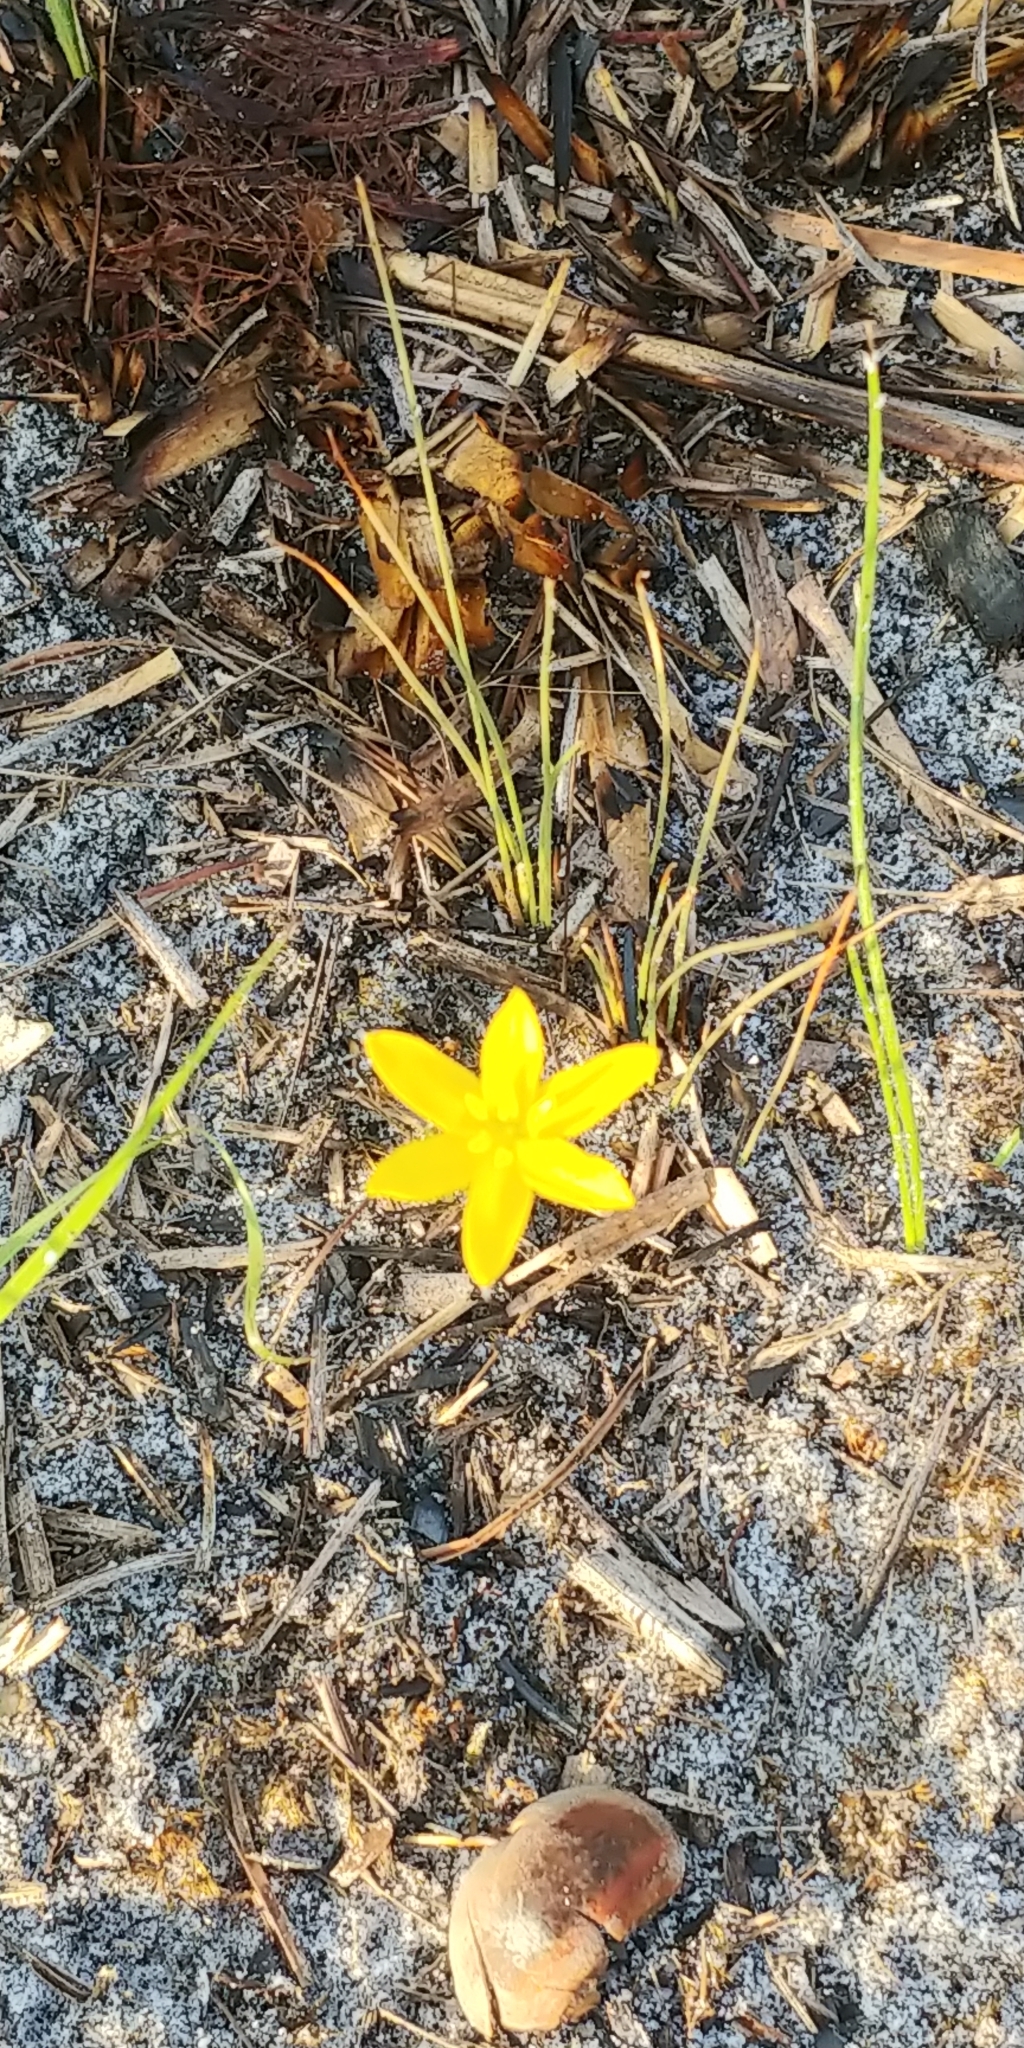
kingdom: Plantae
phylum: Tracheophyta
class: Liliopsida
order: Asparagales
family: Hypoxidaceae
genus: Hypoxis
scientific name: Hypoxis juncea
